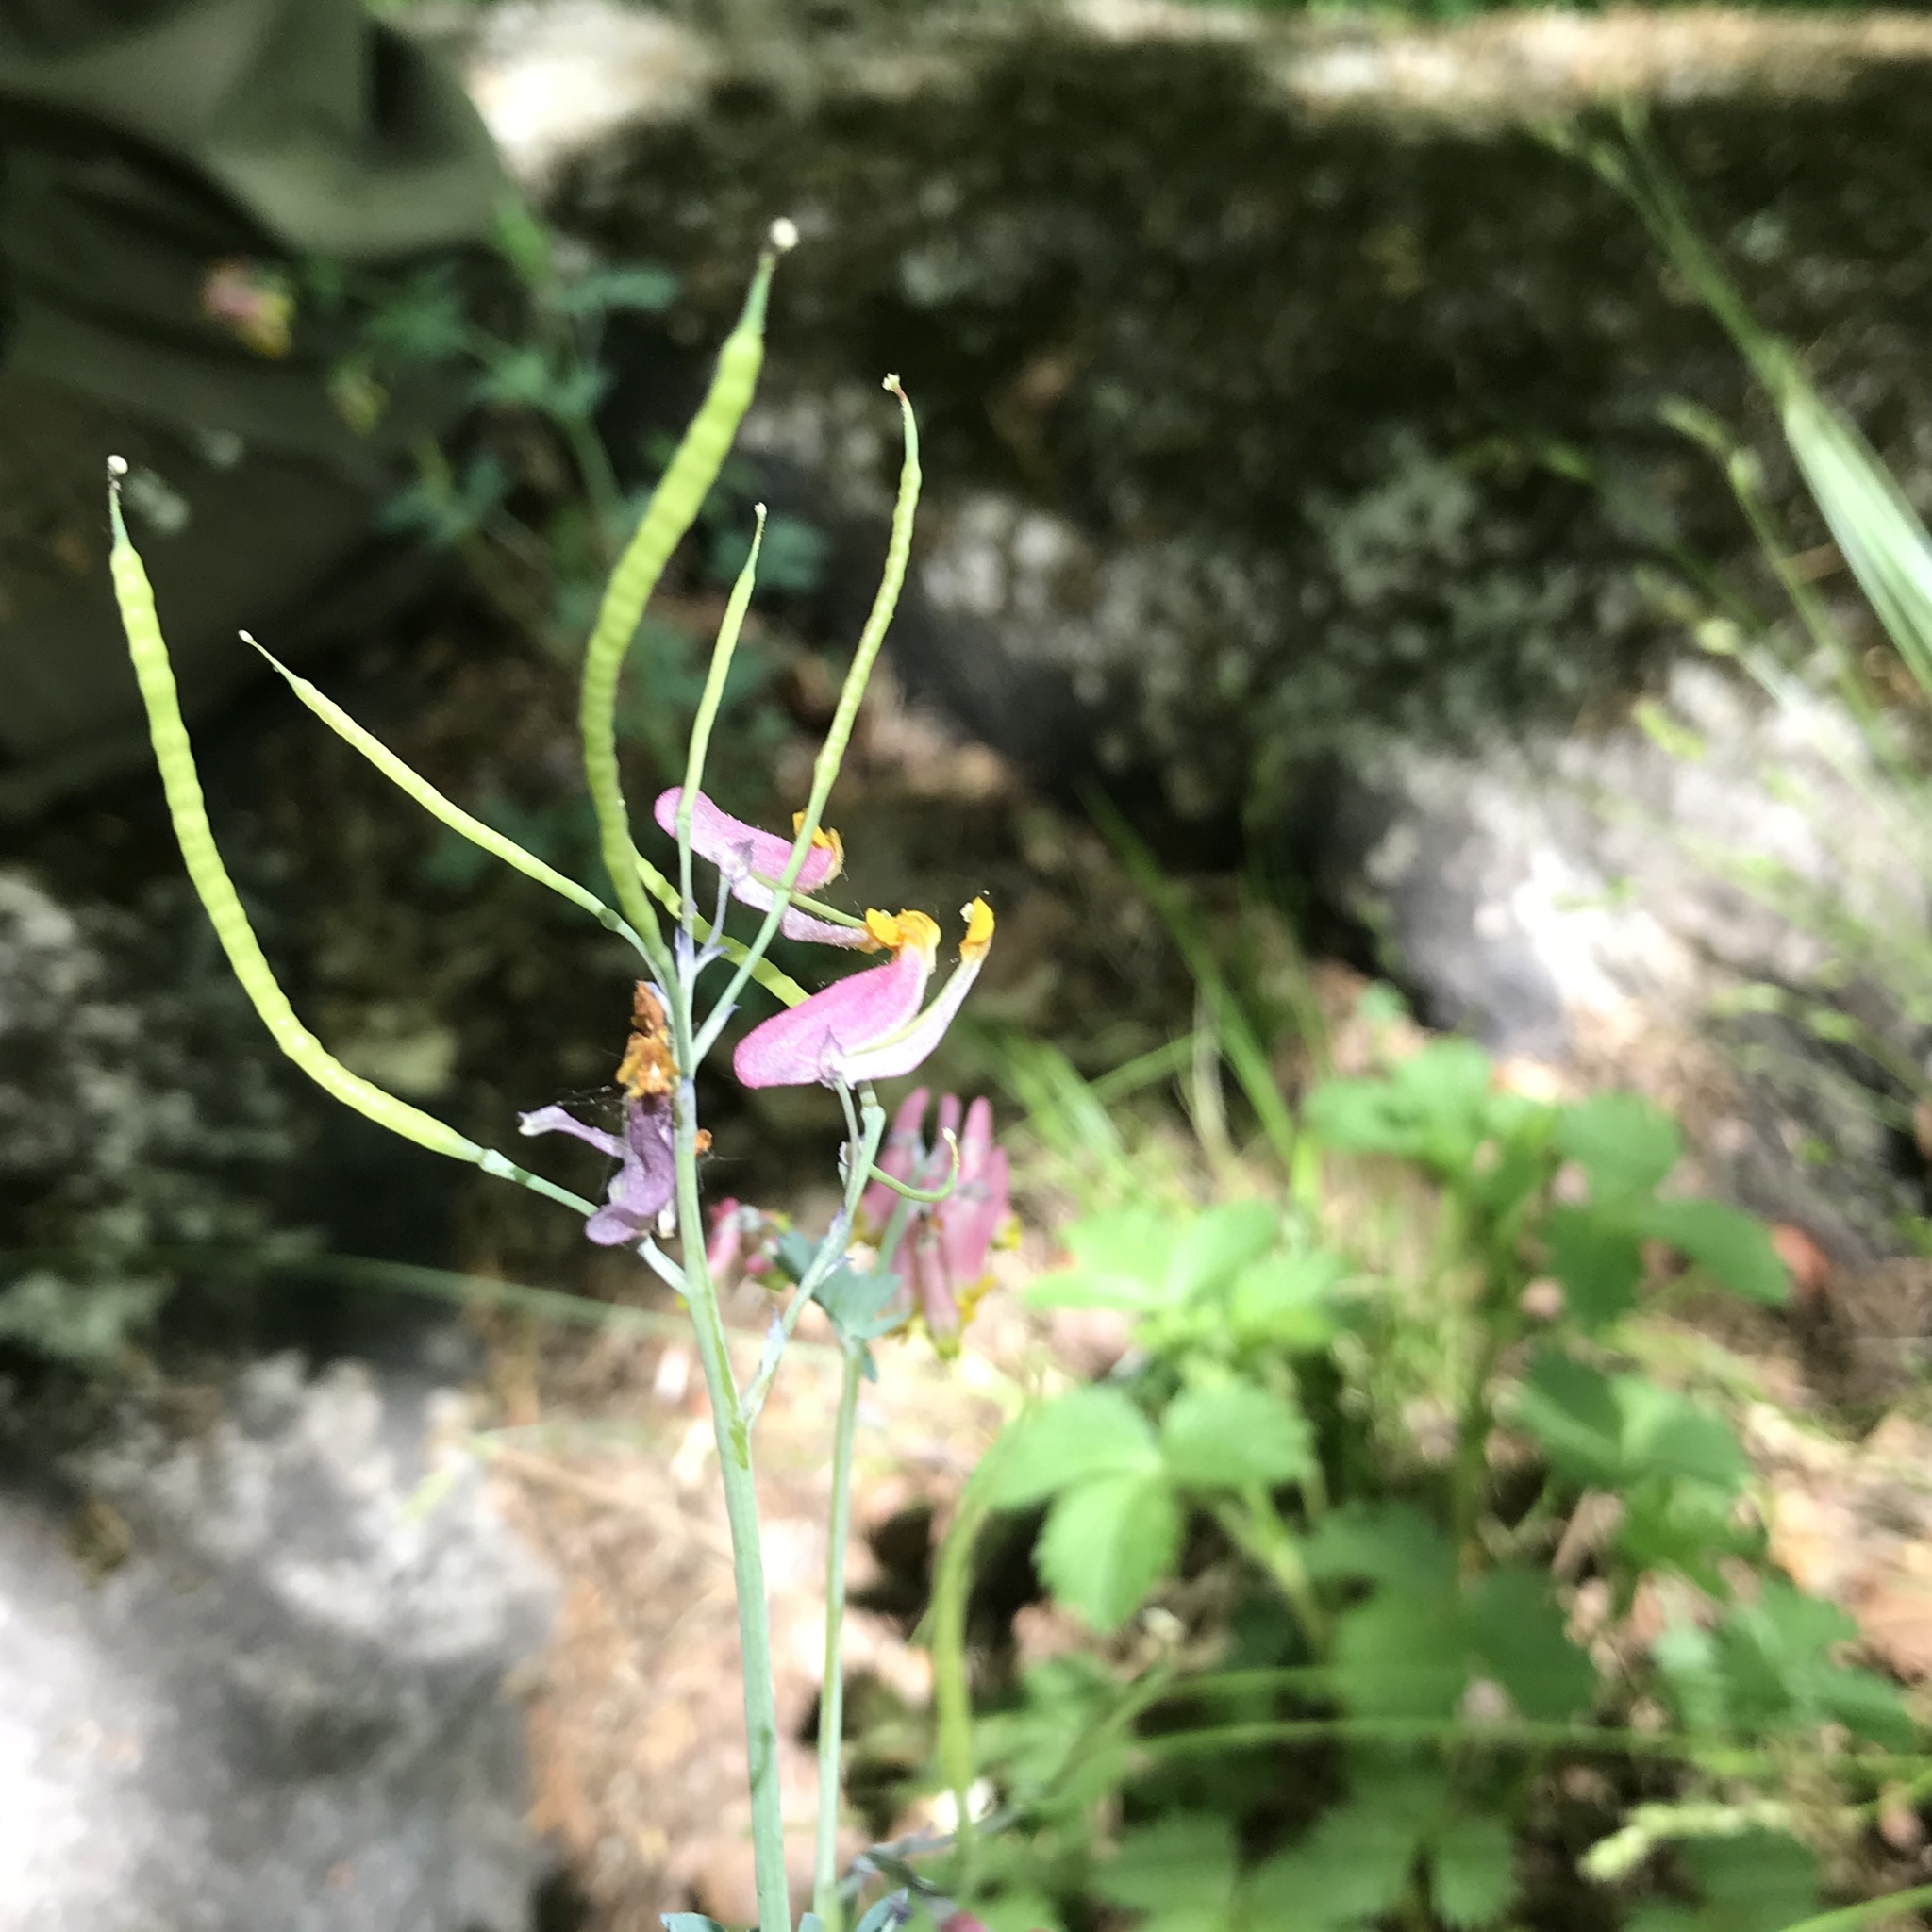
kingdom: Plantae
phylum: Tracheophyta
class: Magnoliopsida
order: Ranunculales
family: Papaveraceae
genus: Capnoides
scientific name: Capnoides sempervirens
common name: Rock harlequin
